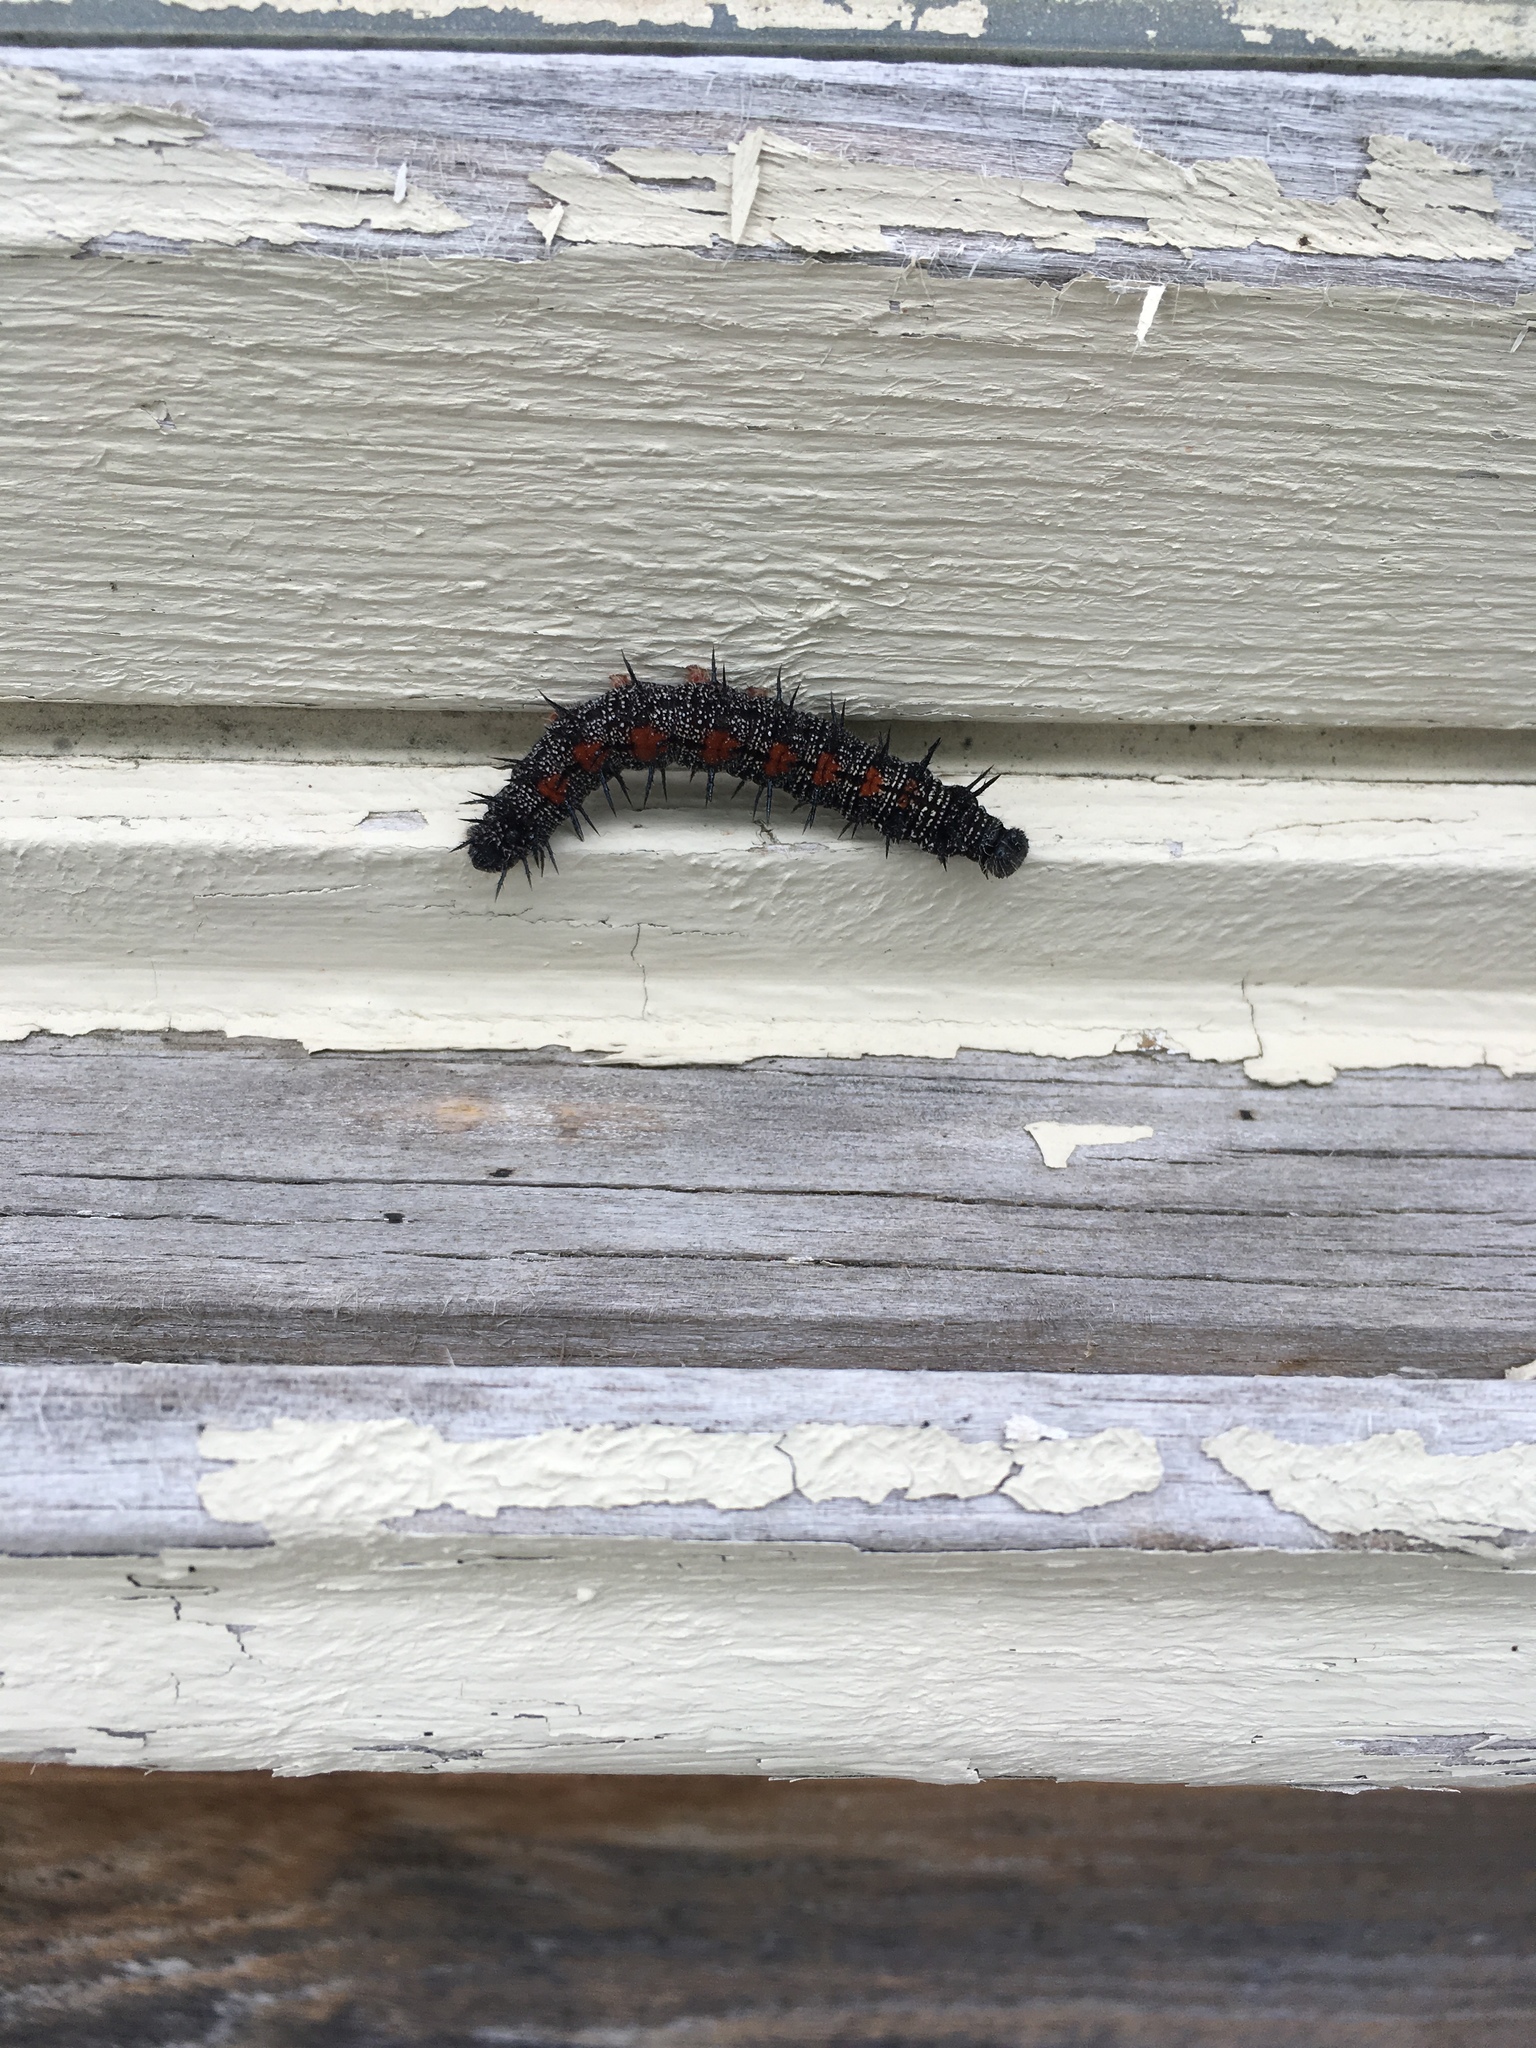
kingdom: Animalia
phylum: Arthropoda
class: Insecta
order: Lepidoptera
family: Nymphalidae
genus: Nymphalis
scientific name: Nymphalis antiopa
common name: Camberwell beauty
